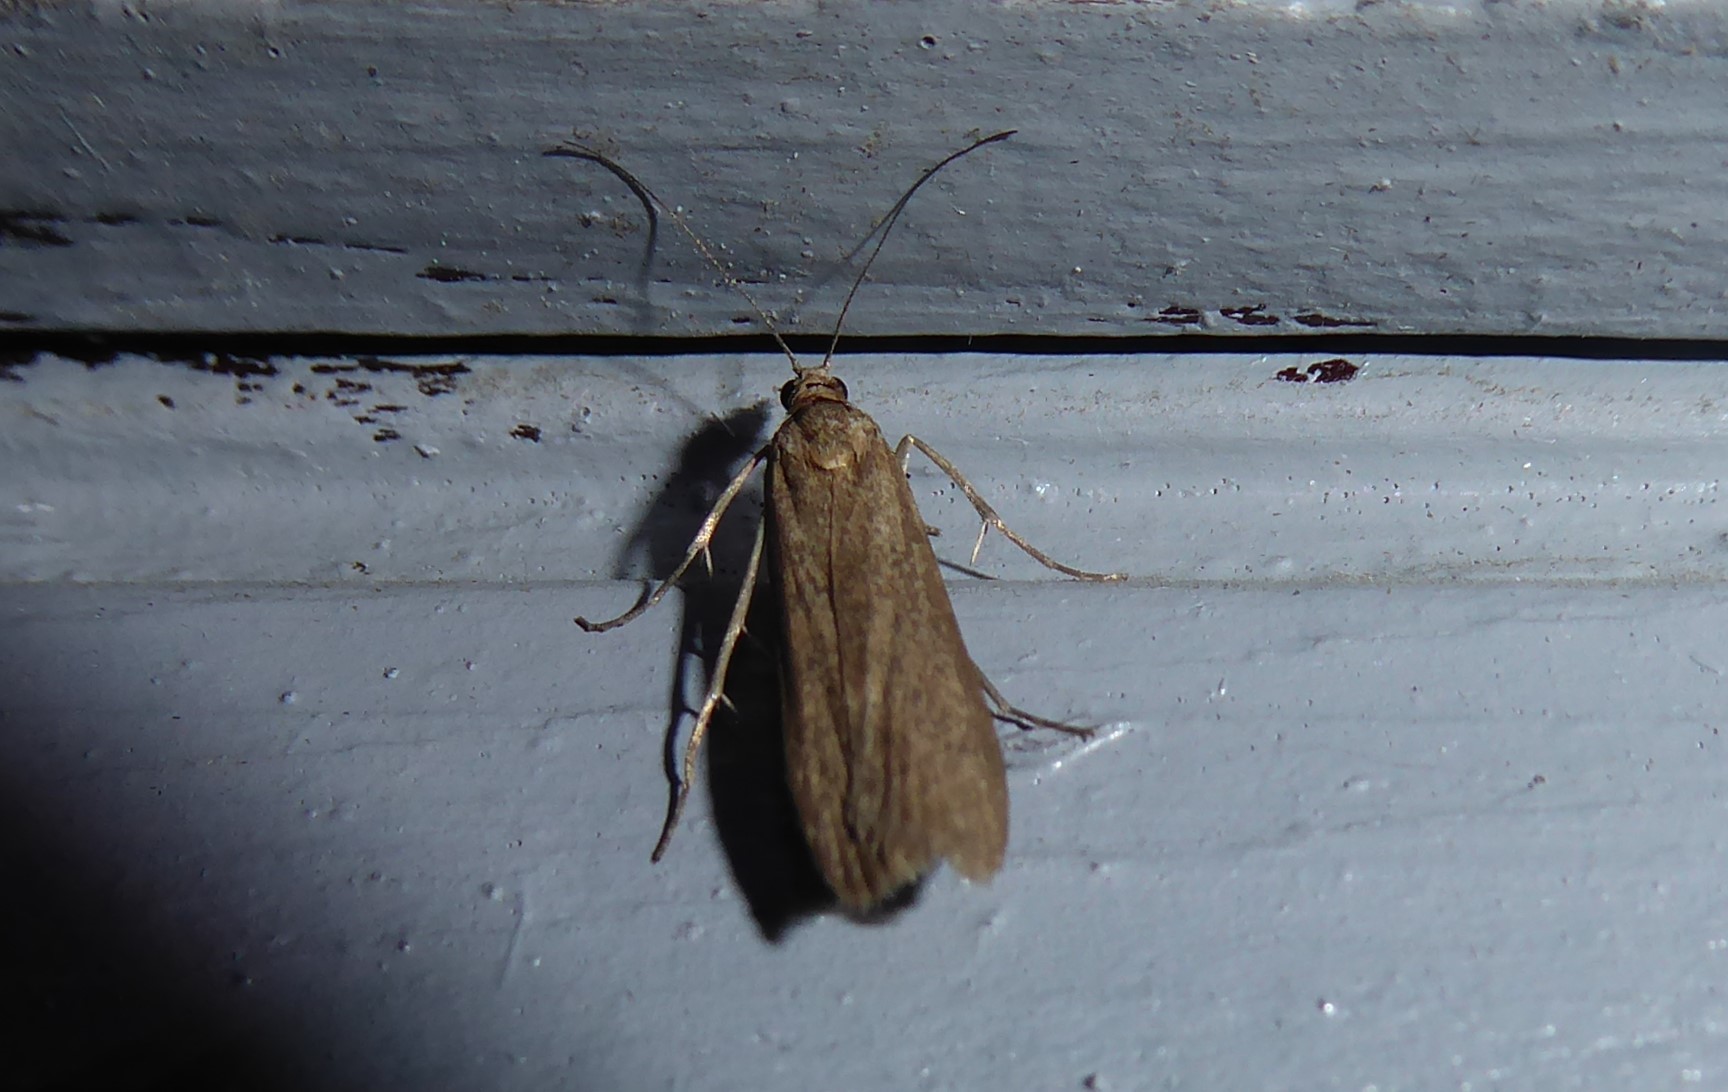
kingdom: Animalia
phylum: Arthropoda
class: Insecta
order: Lepidoptera
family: Crambidae
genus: Eudonia
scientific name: Eudonia leptalea
